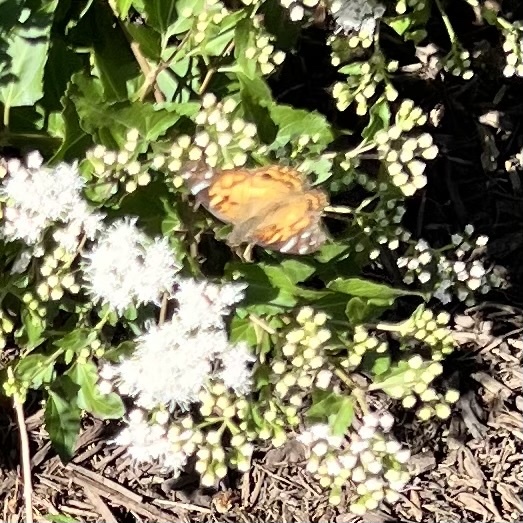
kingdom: Animalia
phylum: Arthropoda
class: Insecta
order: Lepidoptera
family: Nymphalidae
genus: Vanessa
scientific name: Vanessa virginiensis
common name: American lady
